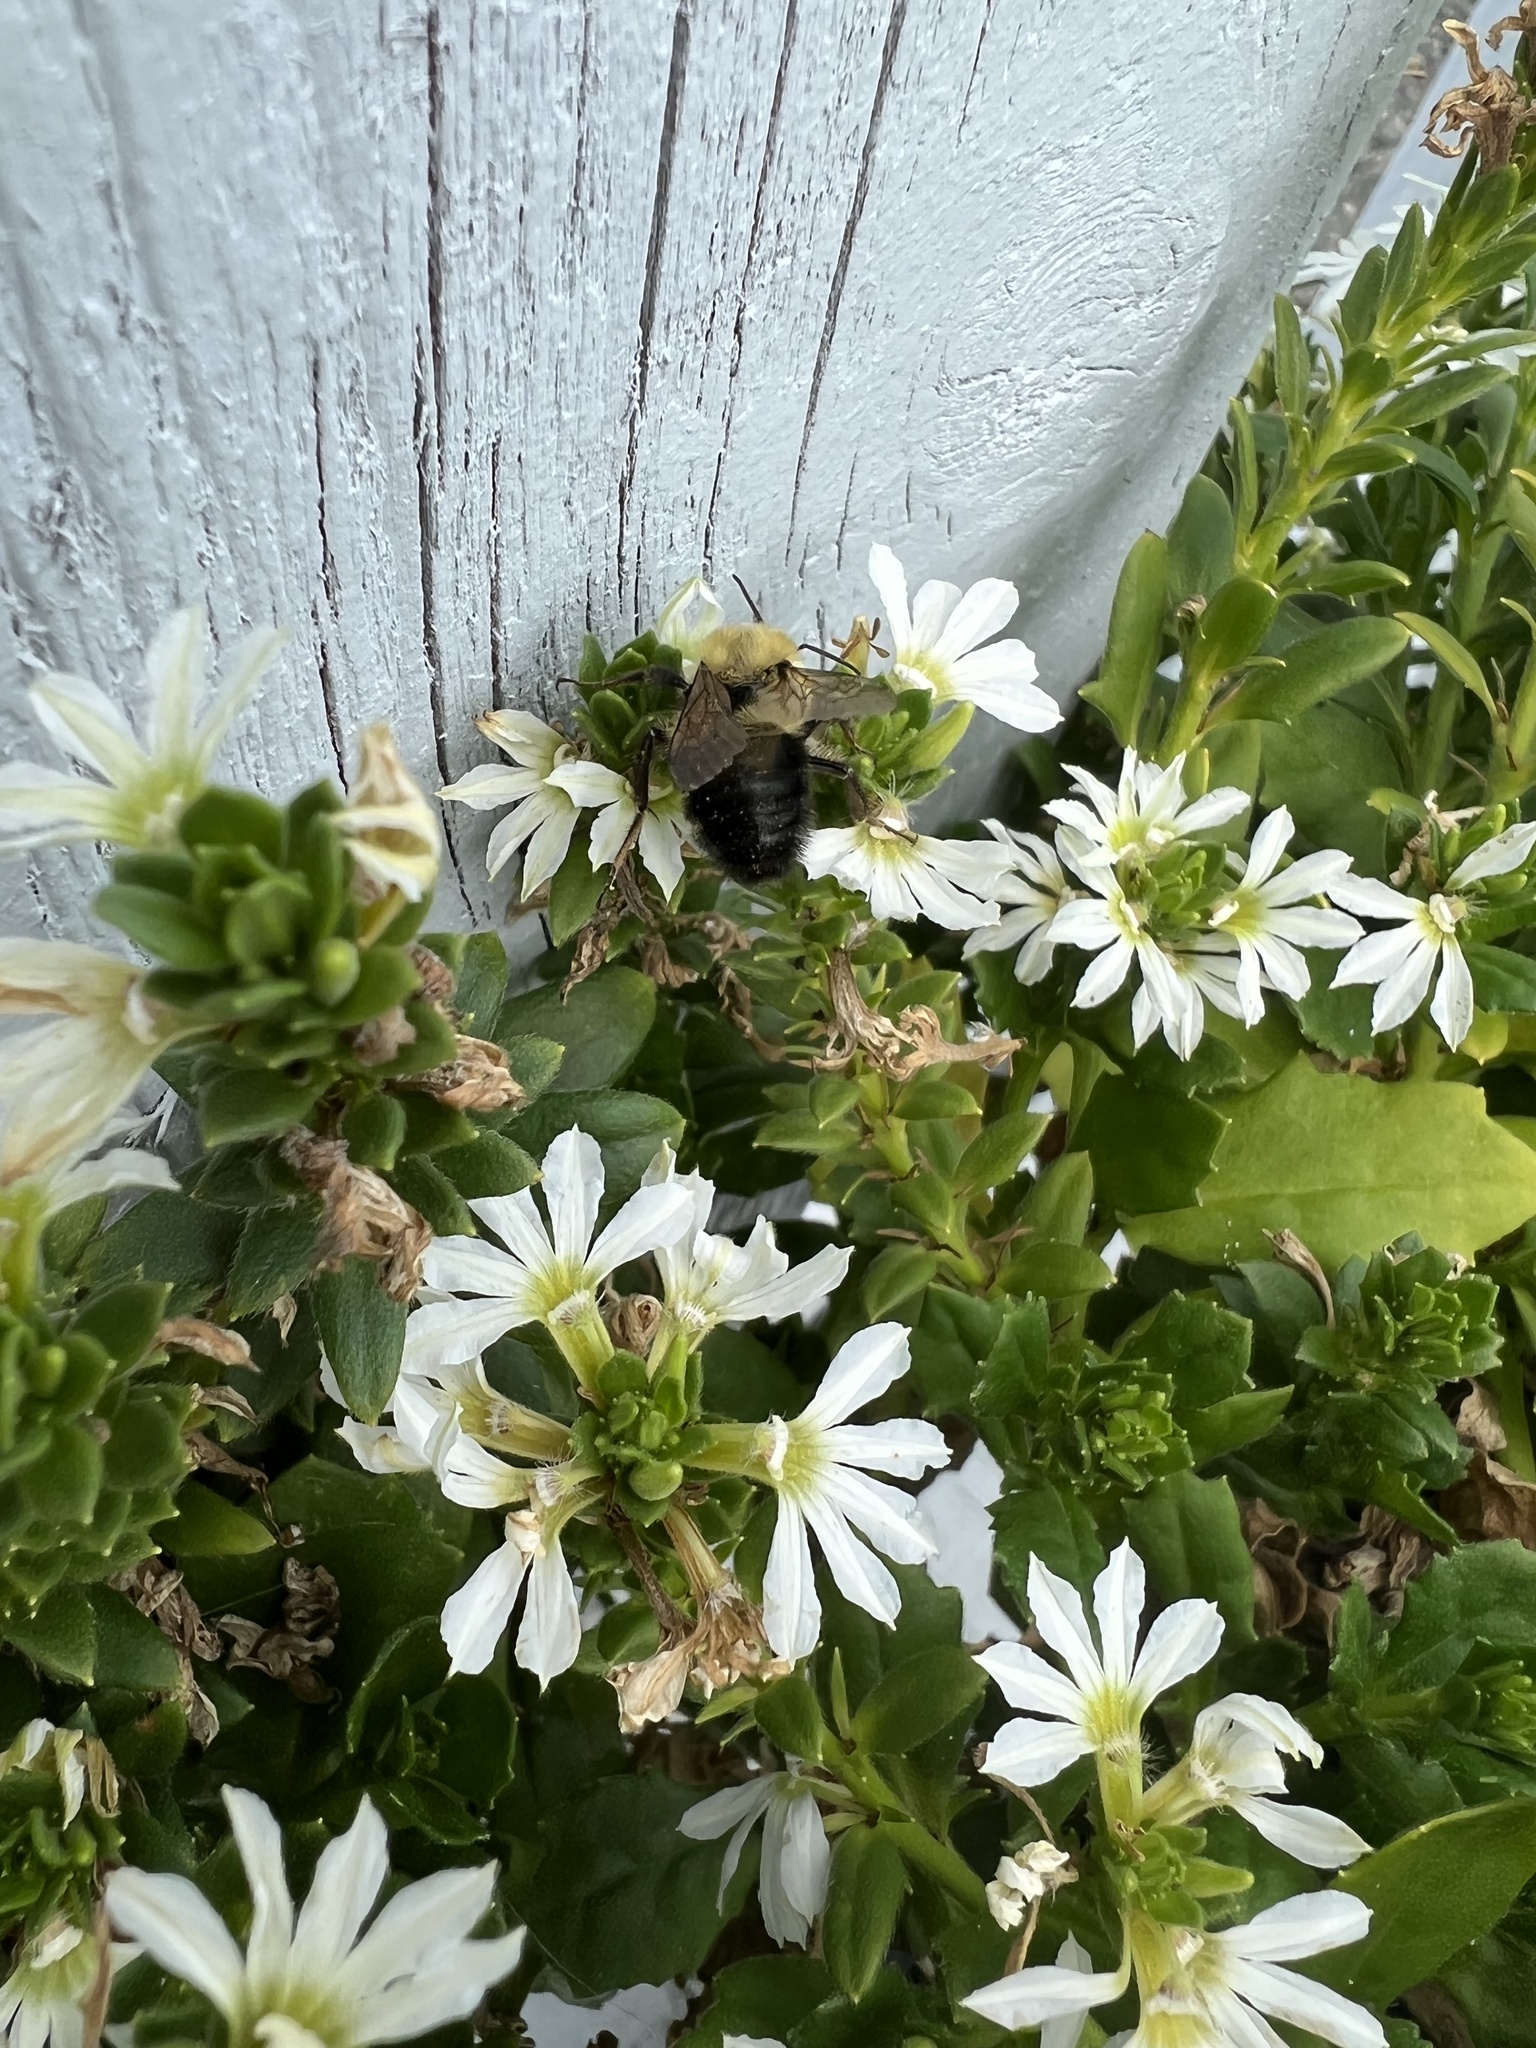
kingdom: Animalia
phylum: Arthropoda
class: Insecta
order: Hymenoptera
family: Apidae
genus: Bombus
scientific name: Bombus bimaculatus
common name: Two-spotted bumble bee
